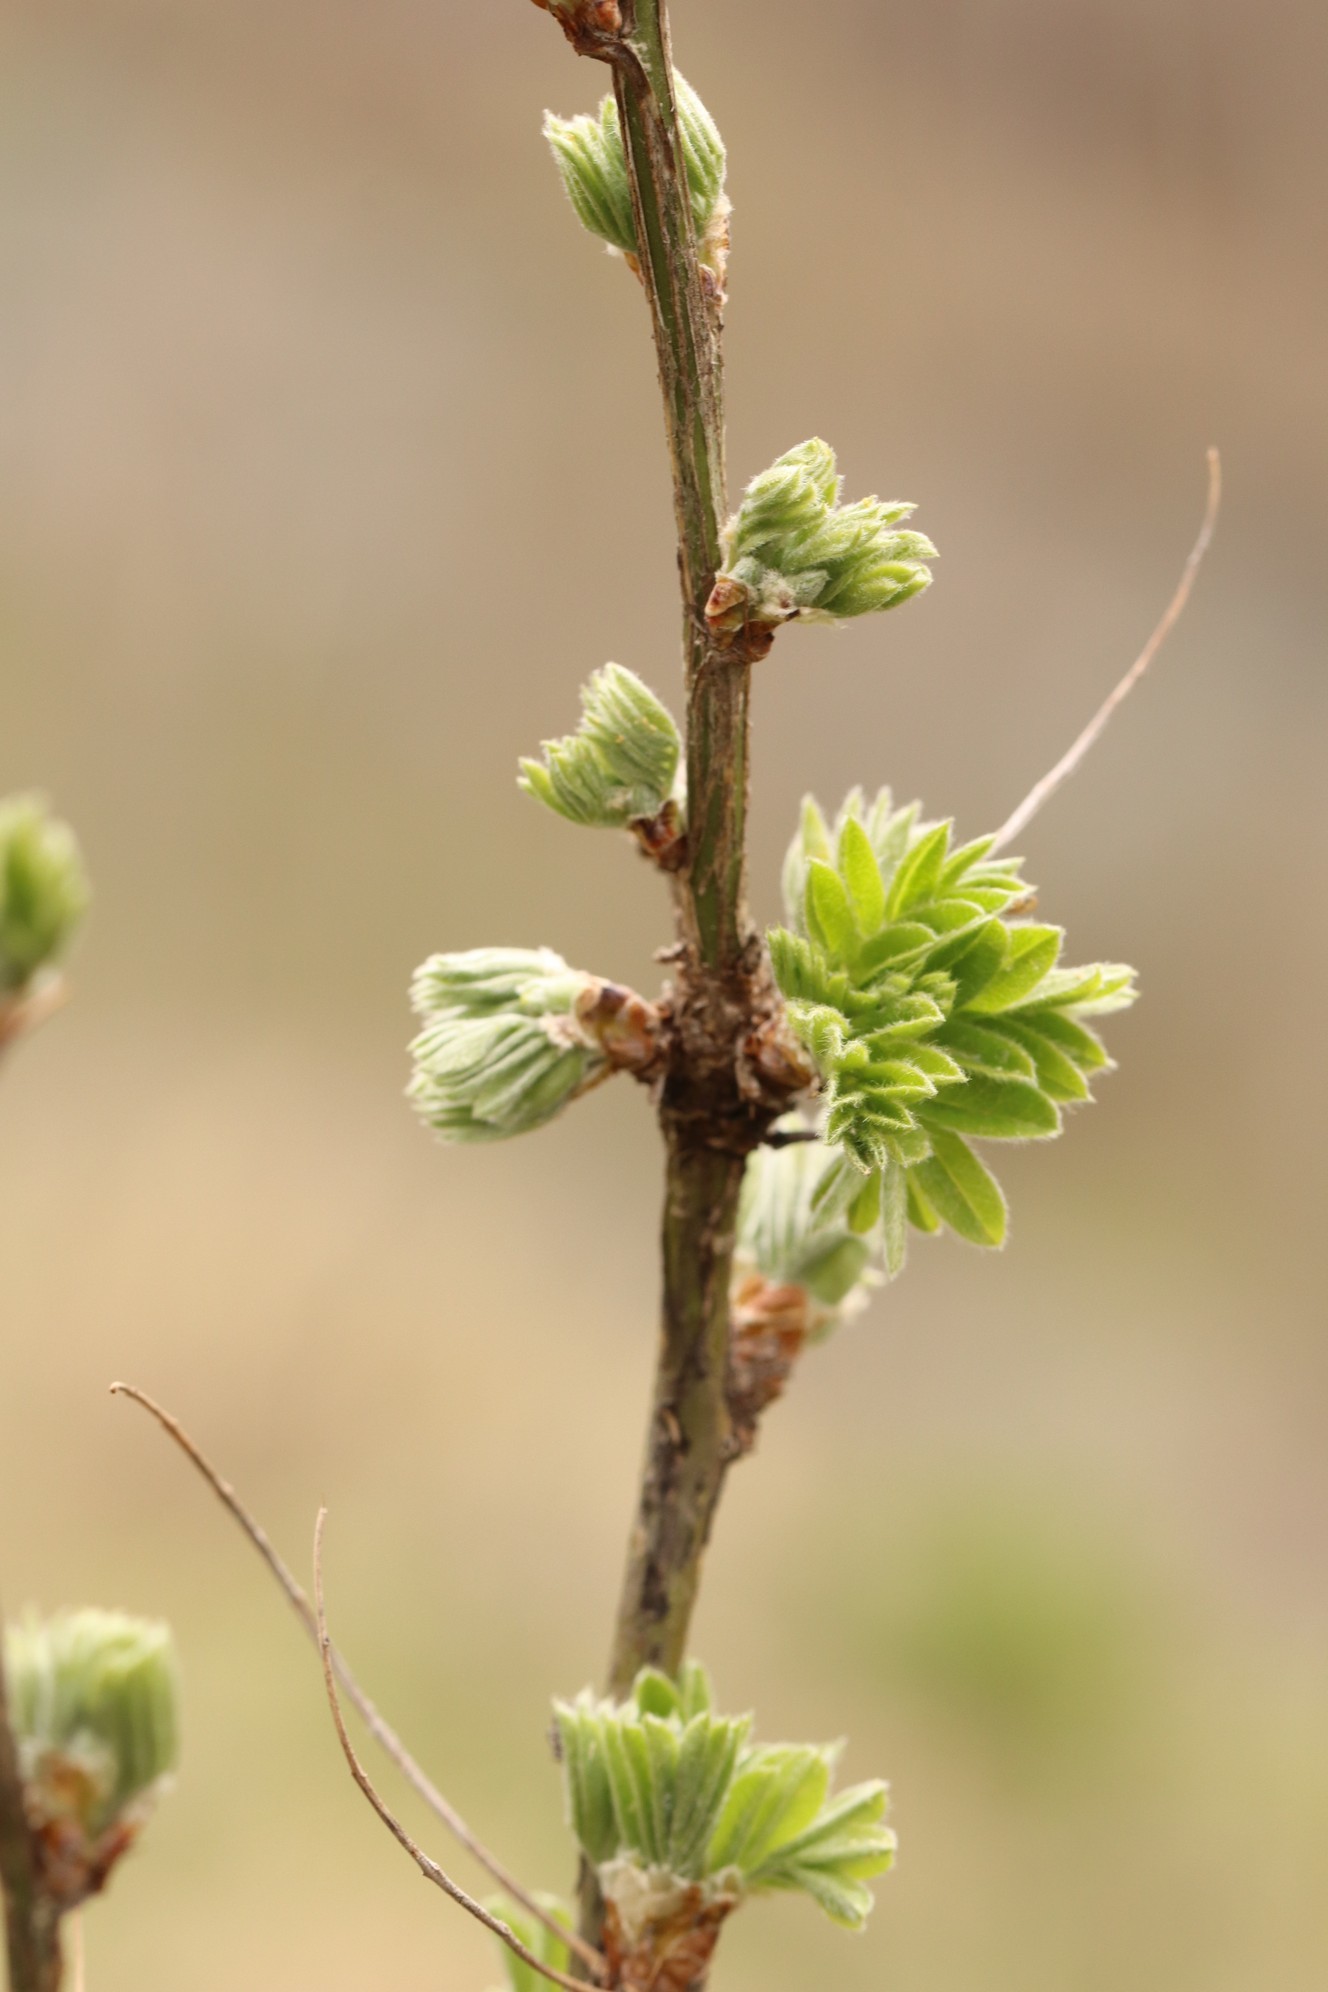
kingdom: Plantae
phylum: Tracheophyta
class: Magnoliopsida
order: Fabales
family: Fabaceae
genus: Caragana
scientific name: Caragana arborescens
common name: Siberian peashrub
